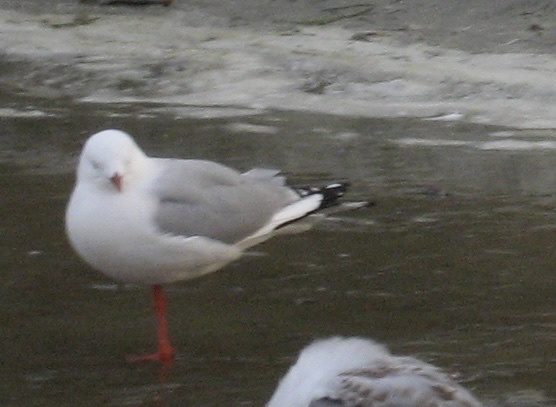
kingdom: Animalia
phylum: Chordata
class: Aves
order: Charadriiformes
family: Laridae
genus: Chroicocephalus
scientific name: Chroicocephalus novaehollandiae
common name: Silver gull
